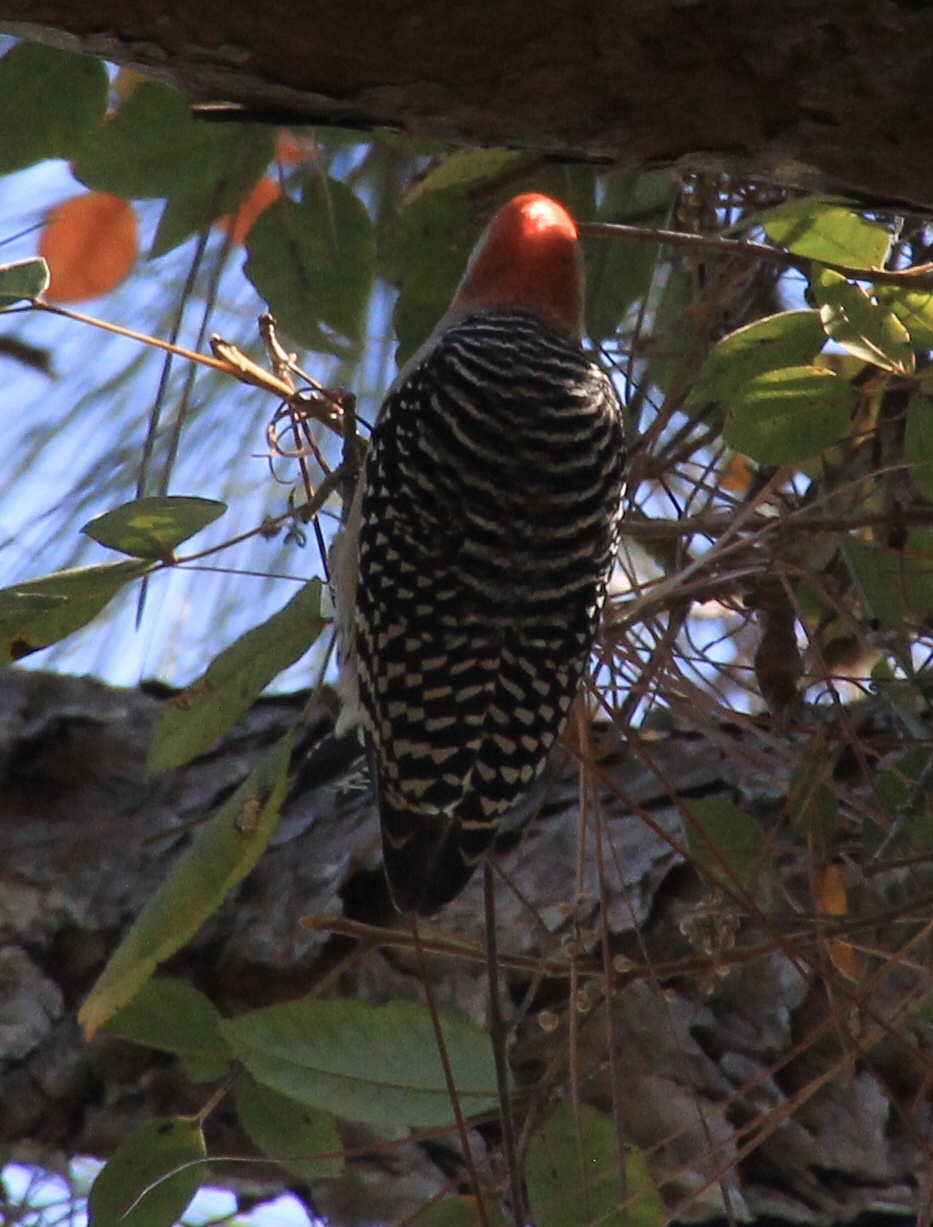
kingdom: Animalia
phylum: Chordata
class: Aves
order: Piciformes
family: Picidae
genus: Melanerpes
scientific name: Melanerpes carolinus
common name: Red-bellied woodpecker
